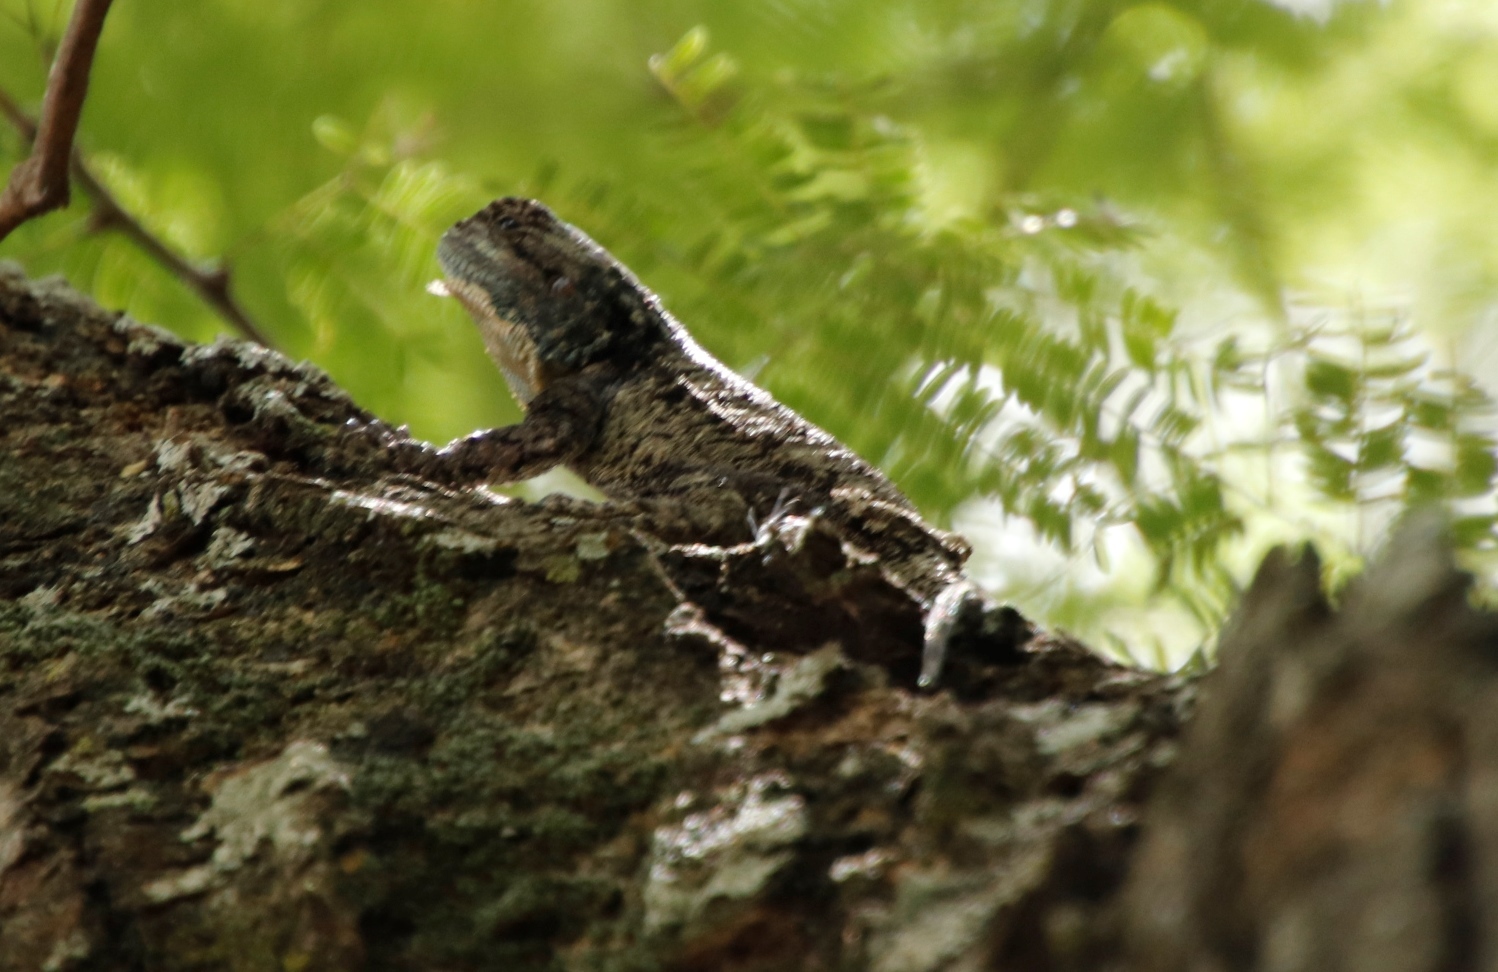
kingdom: Animalia
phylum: Chordata
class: Squamata
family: Agamidae
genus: Acanthocercus
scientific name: Acanthocercus atricollis
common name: Southern tree agama
